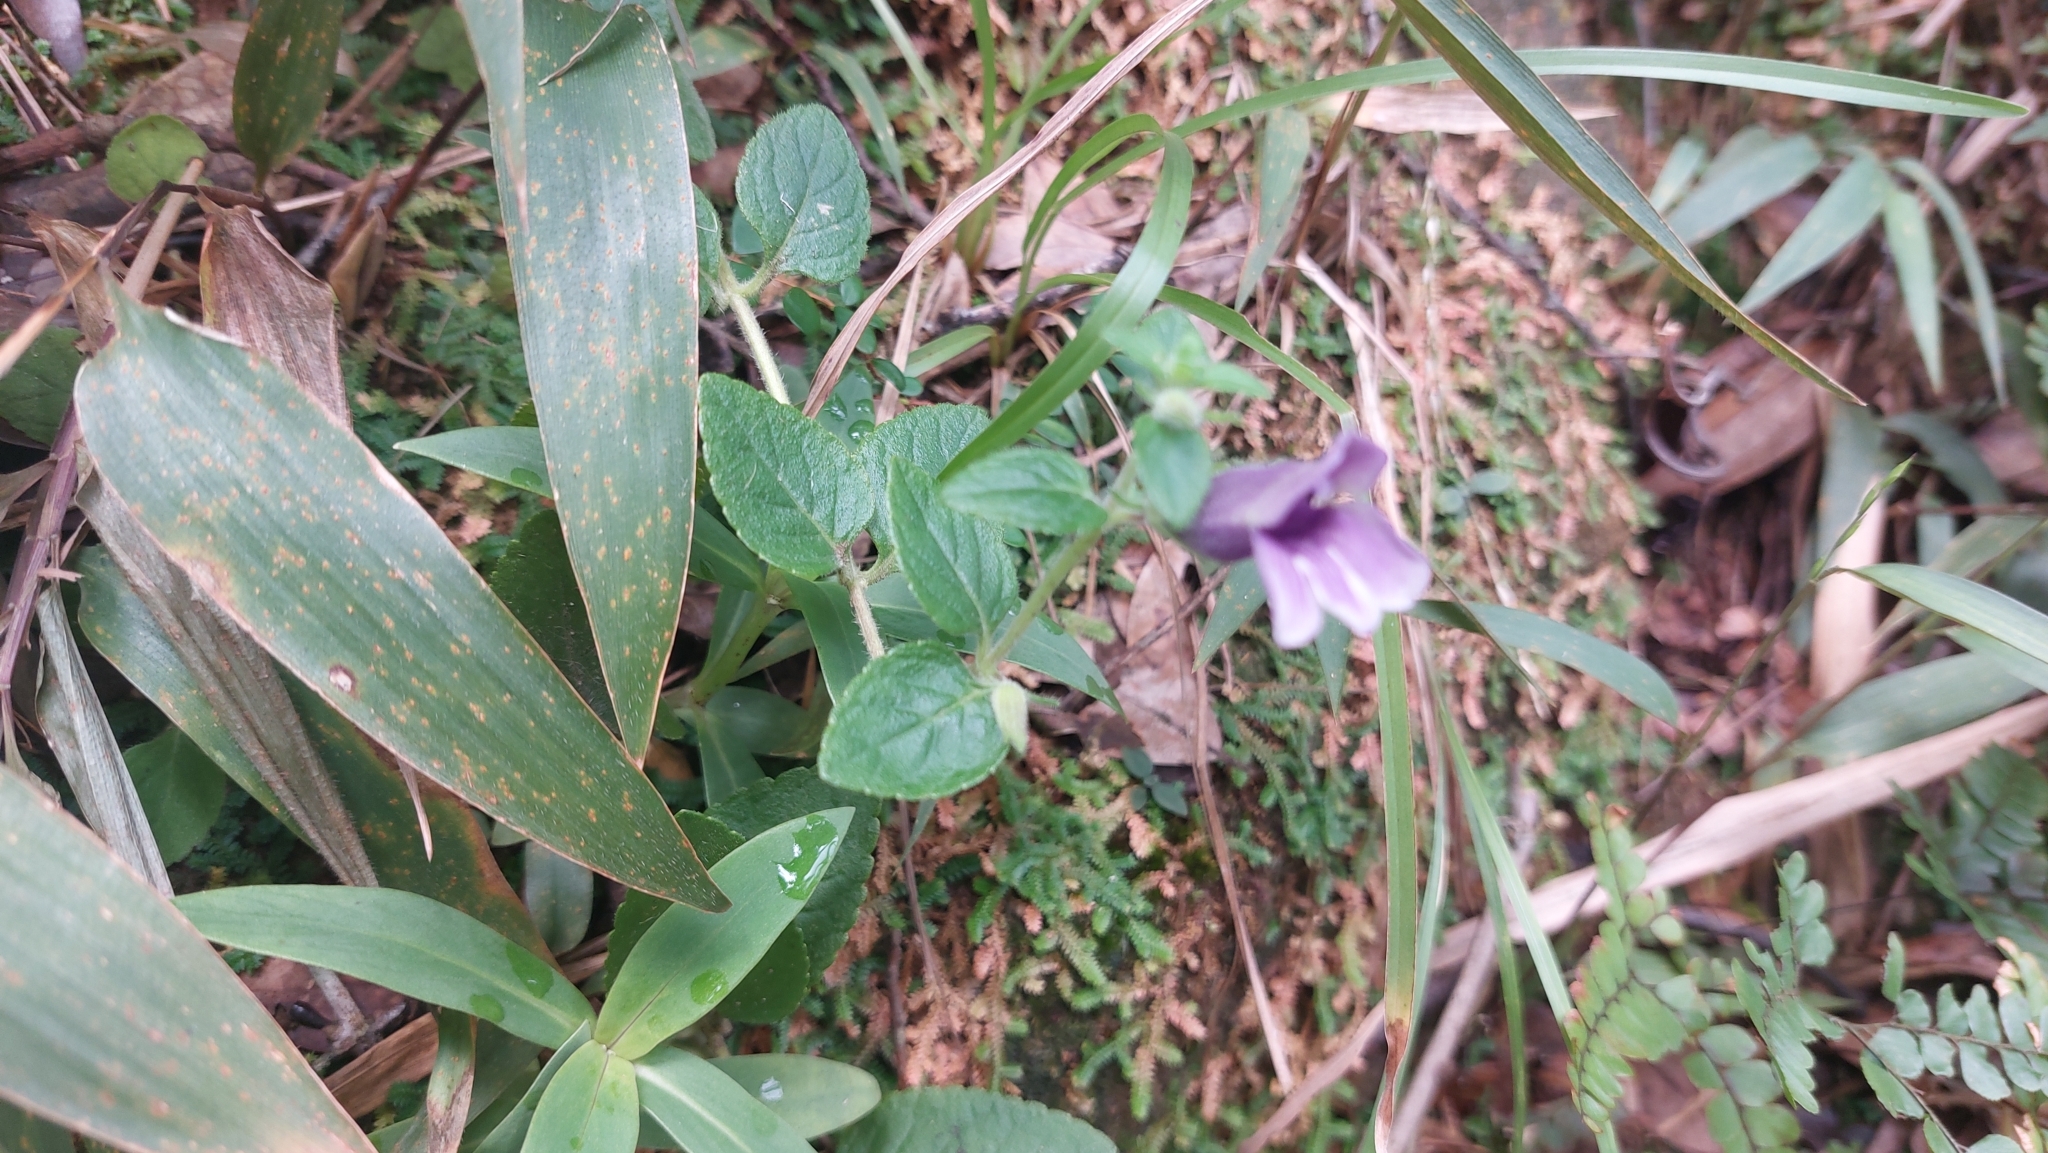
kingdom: Plantae
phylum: Tracheophyta
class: Magnoliopsida
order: Lamiales
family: Plantaginaceae
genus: Adenosma
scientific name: Adenosma glutinosa
